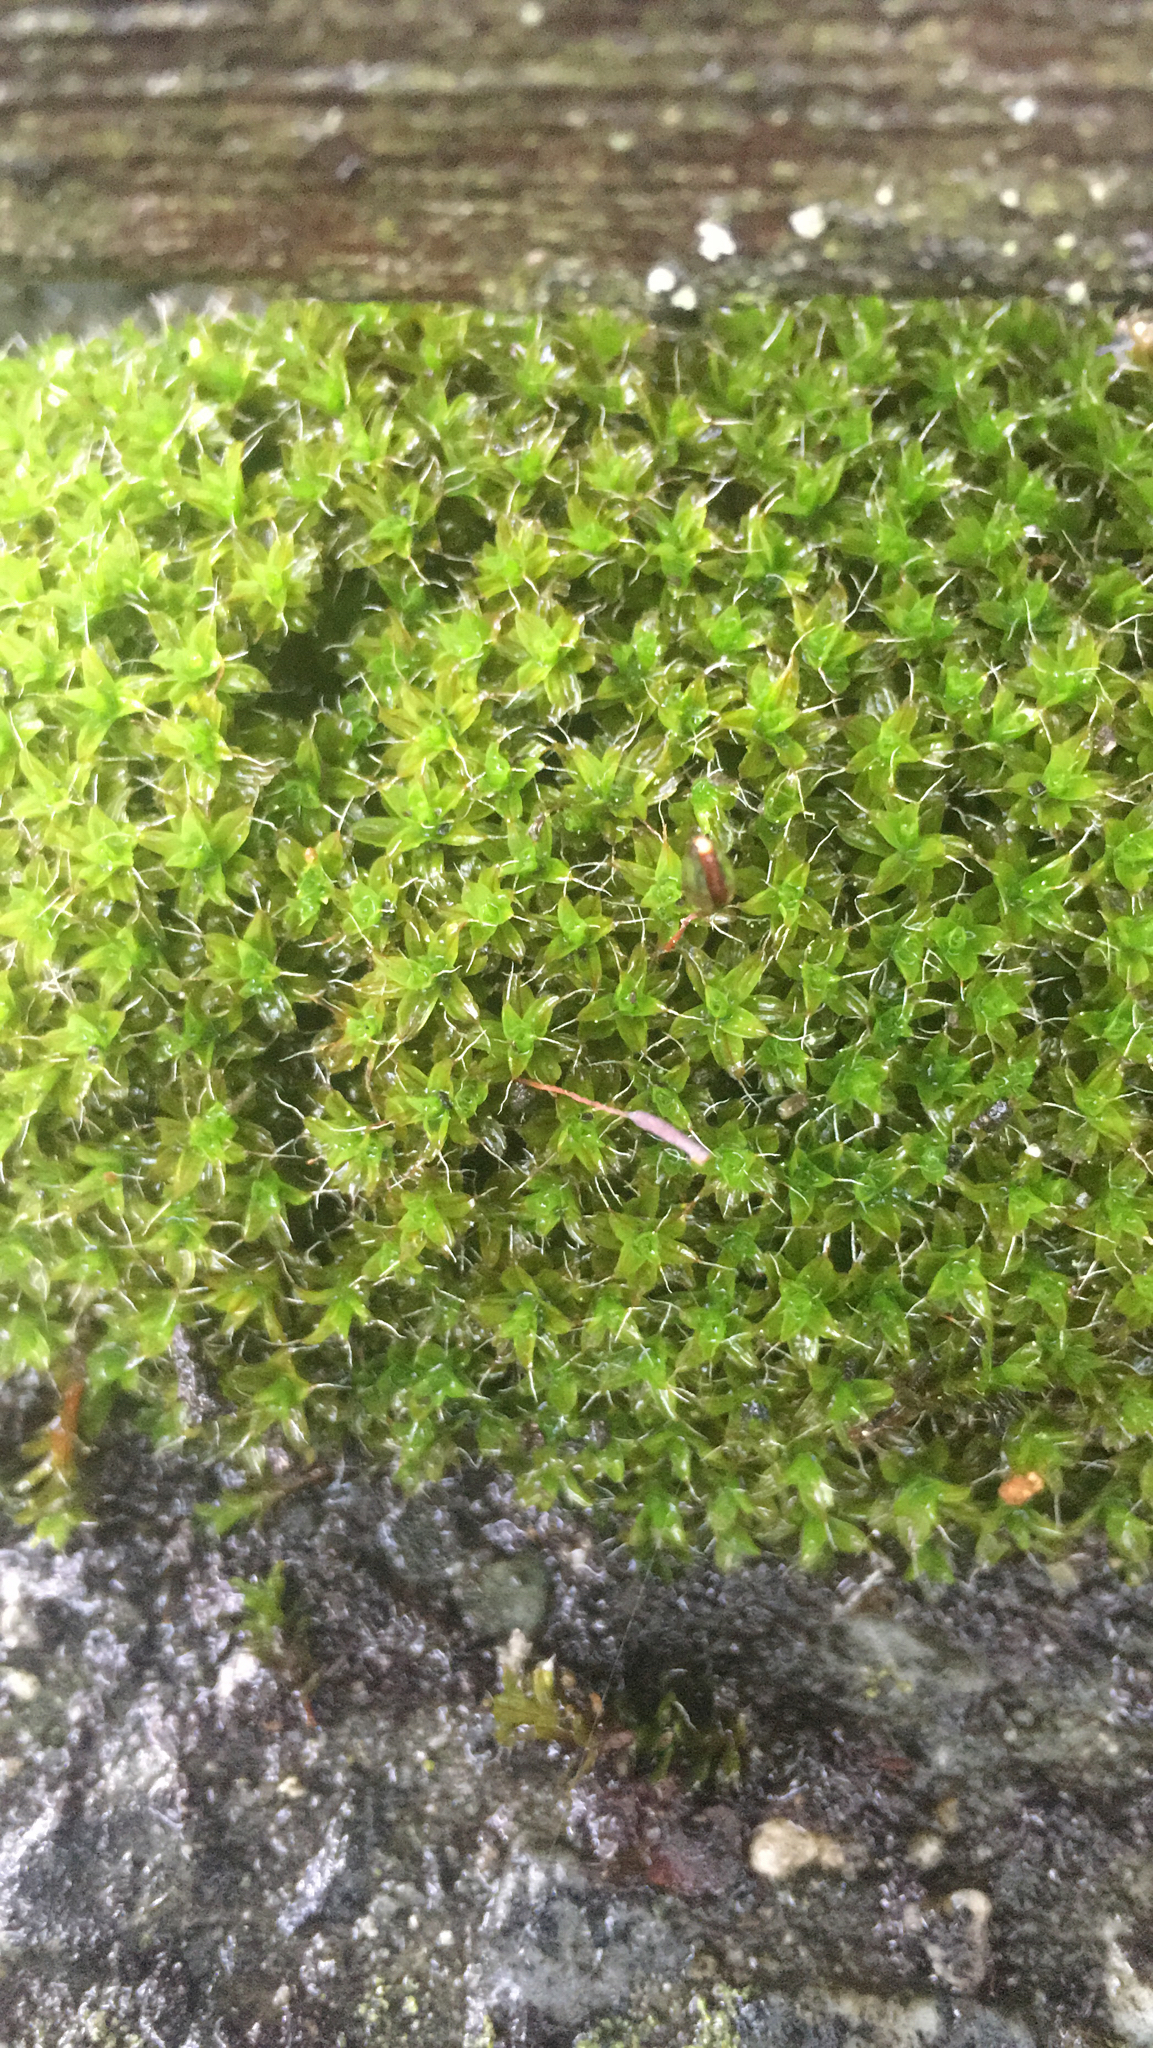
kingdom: Plantae
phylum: Bryophyta
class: Bryopsida
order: Pottiales
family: Pottiaceae
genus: Syntrichia
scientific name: Syntrichia ruralis
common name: Sidewalk screw moss
